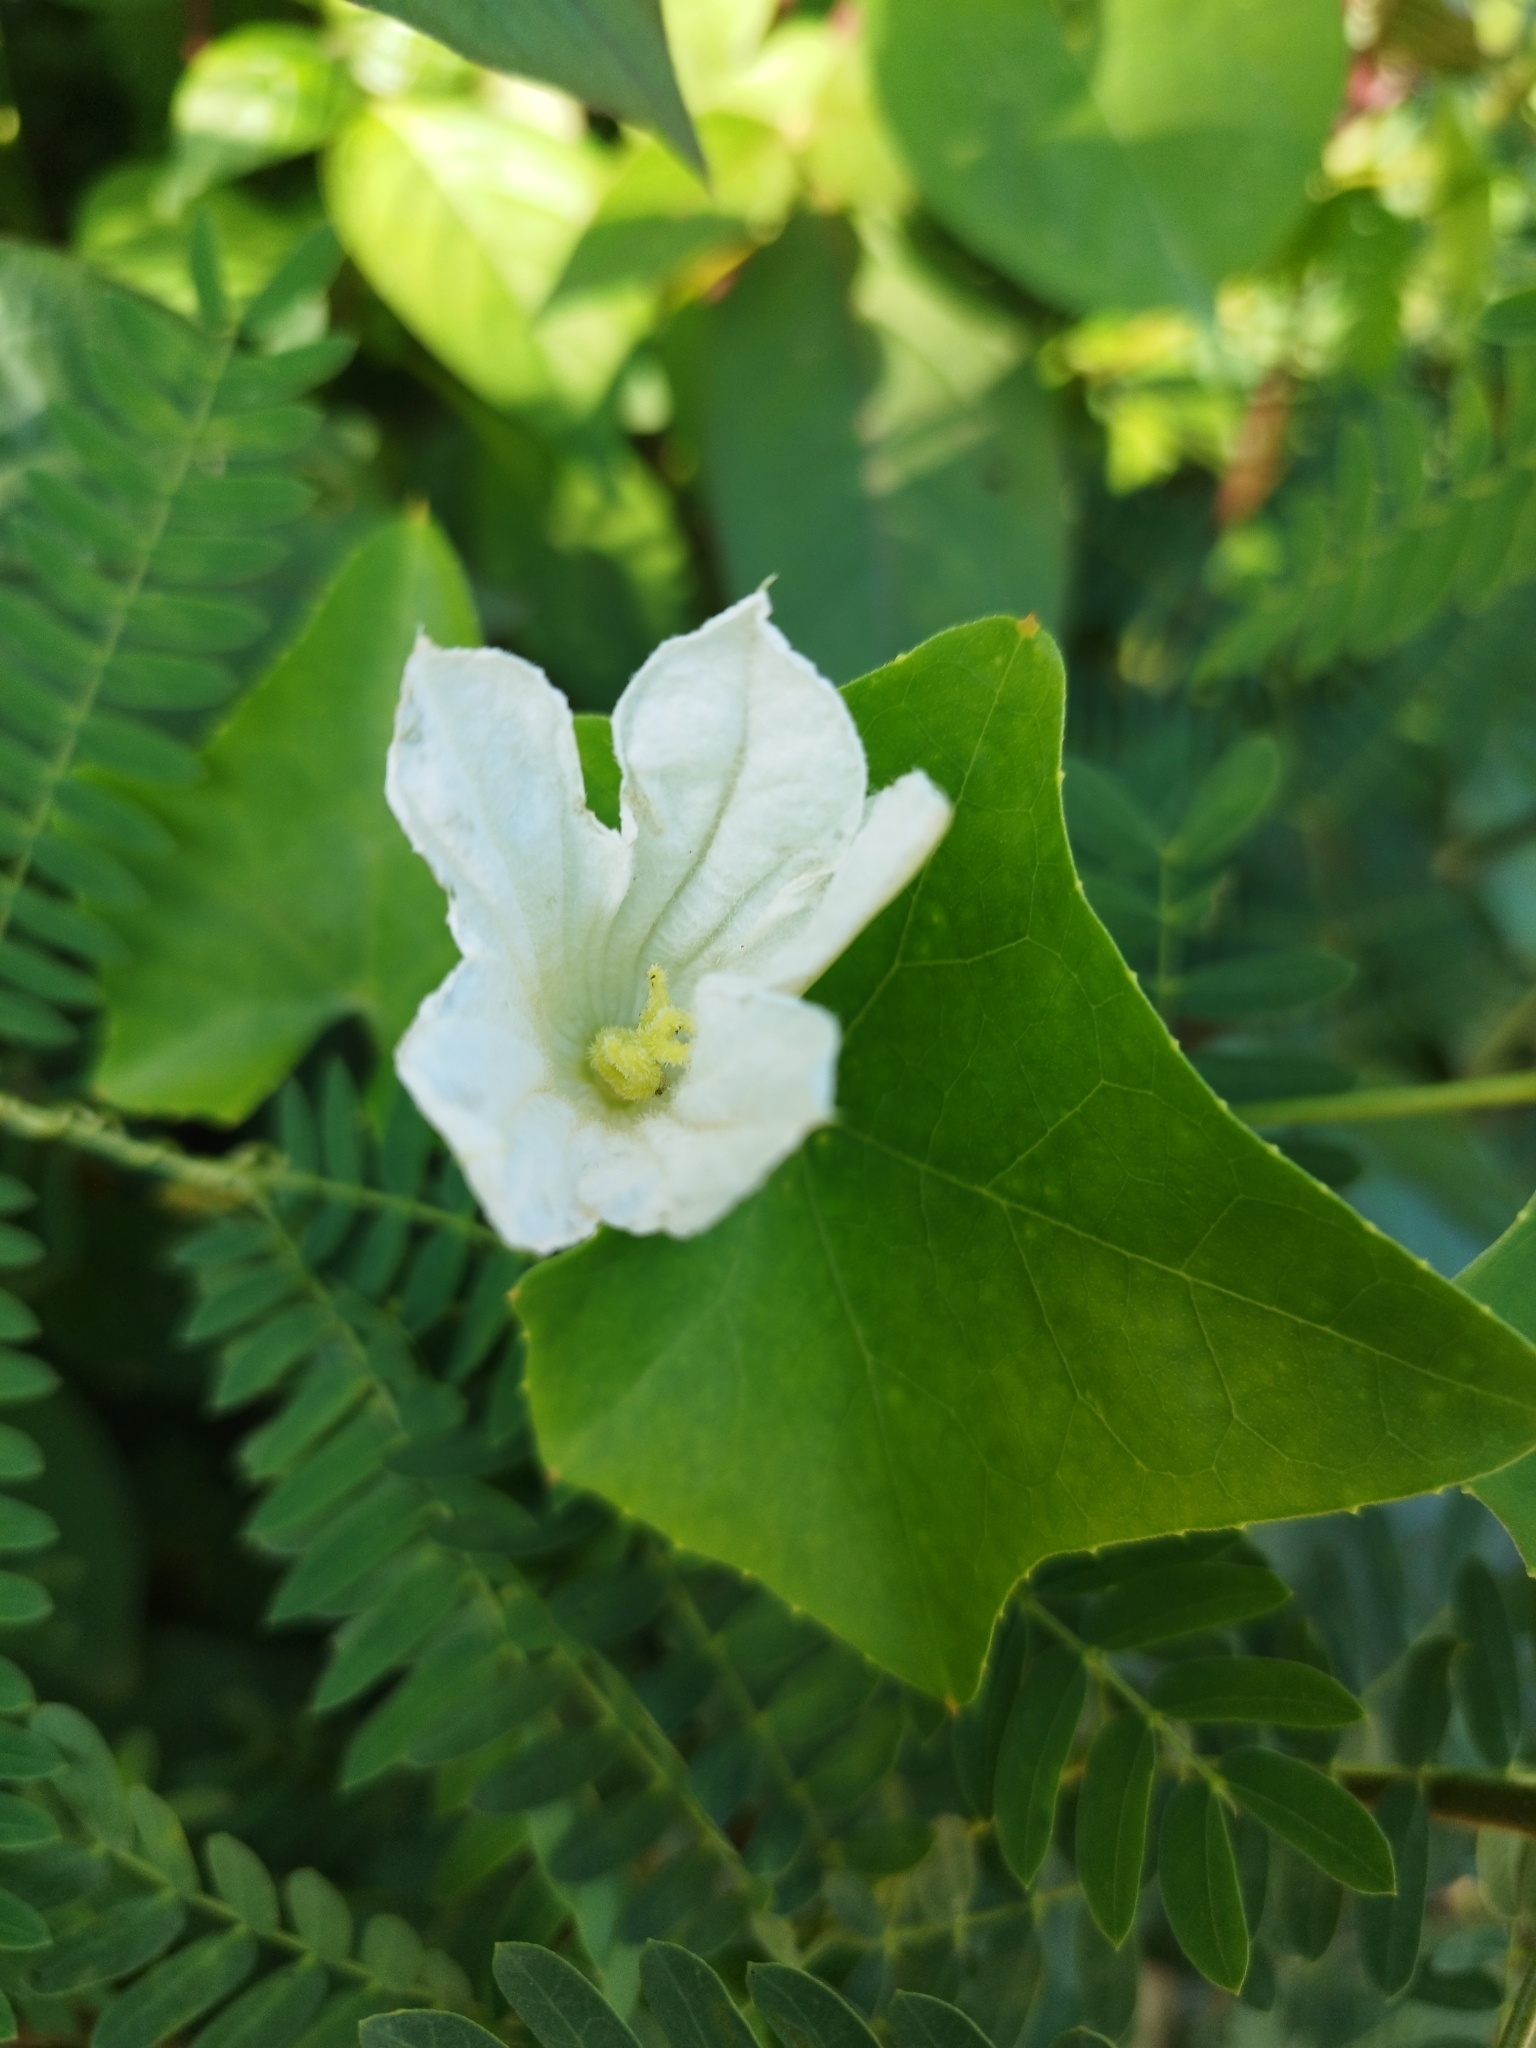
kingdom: Plantae
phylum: Tracheophyta
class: Magnoliopsida
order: Cucurbitales
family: Cucurbitaceae
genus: Coccinia
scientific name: Coccinia grandis
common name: Ivy gourd
